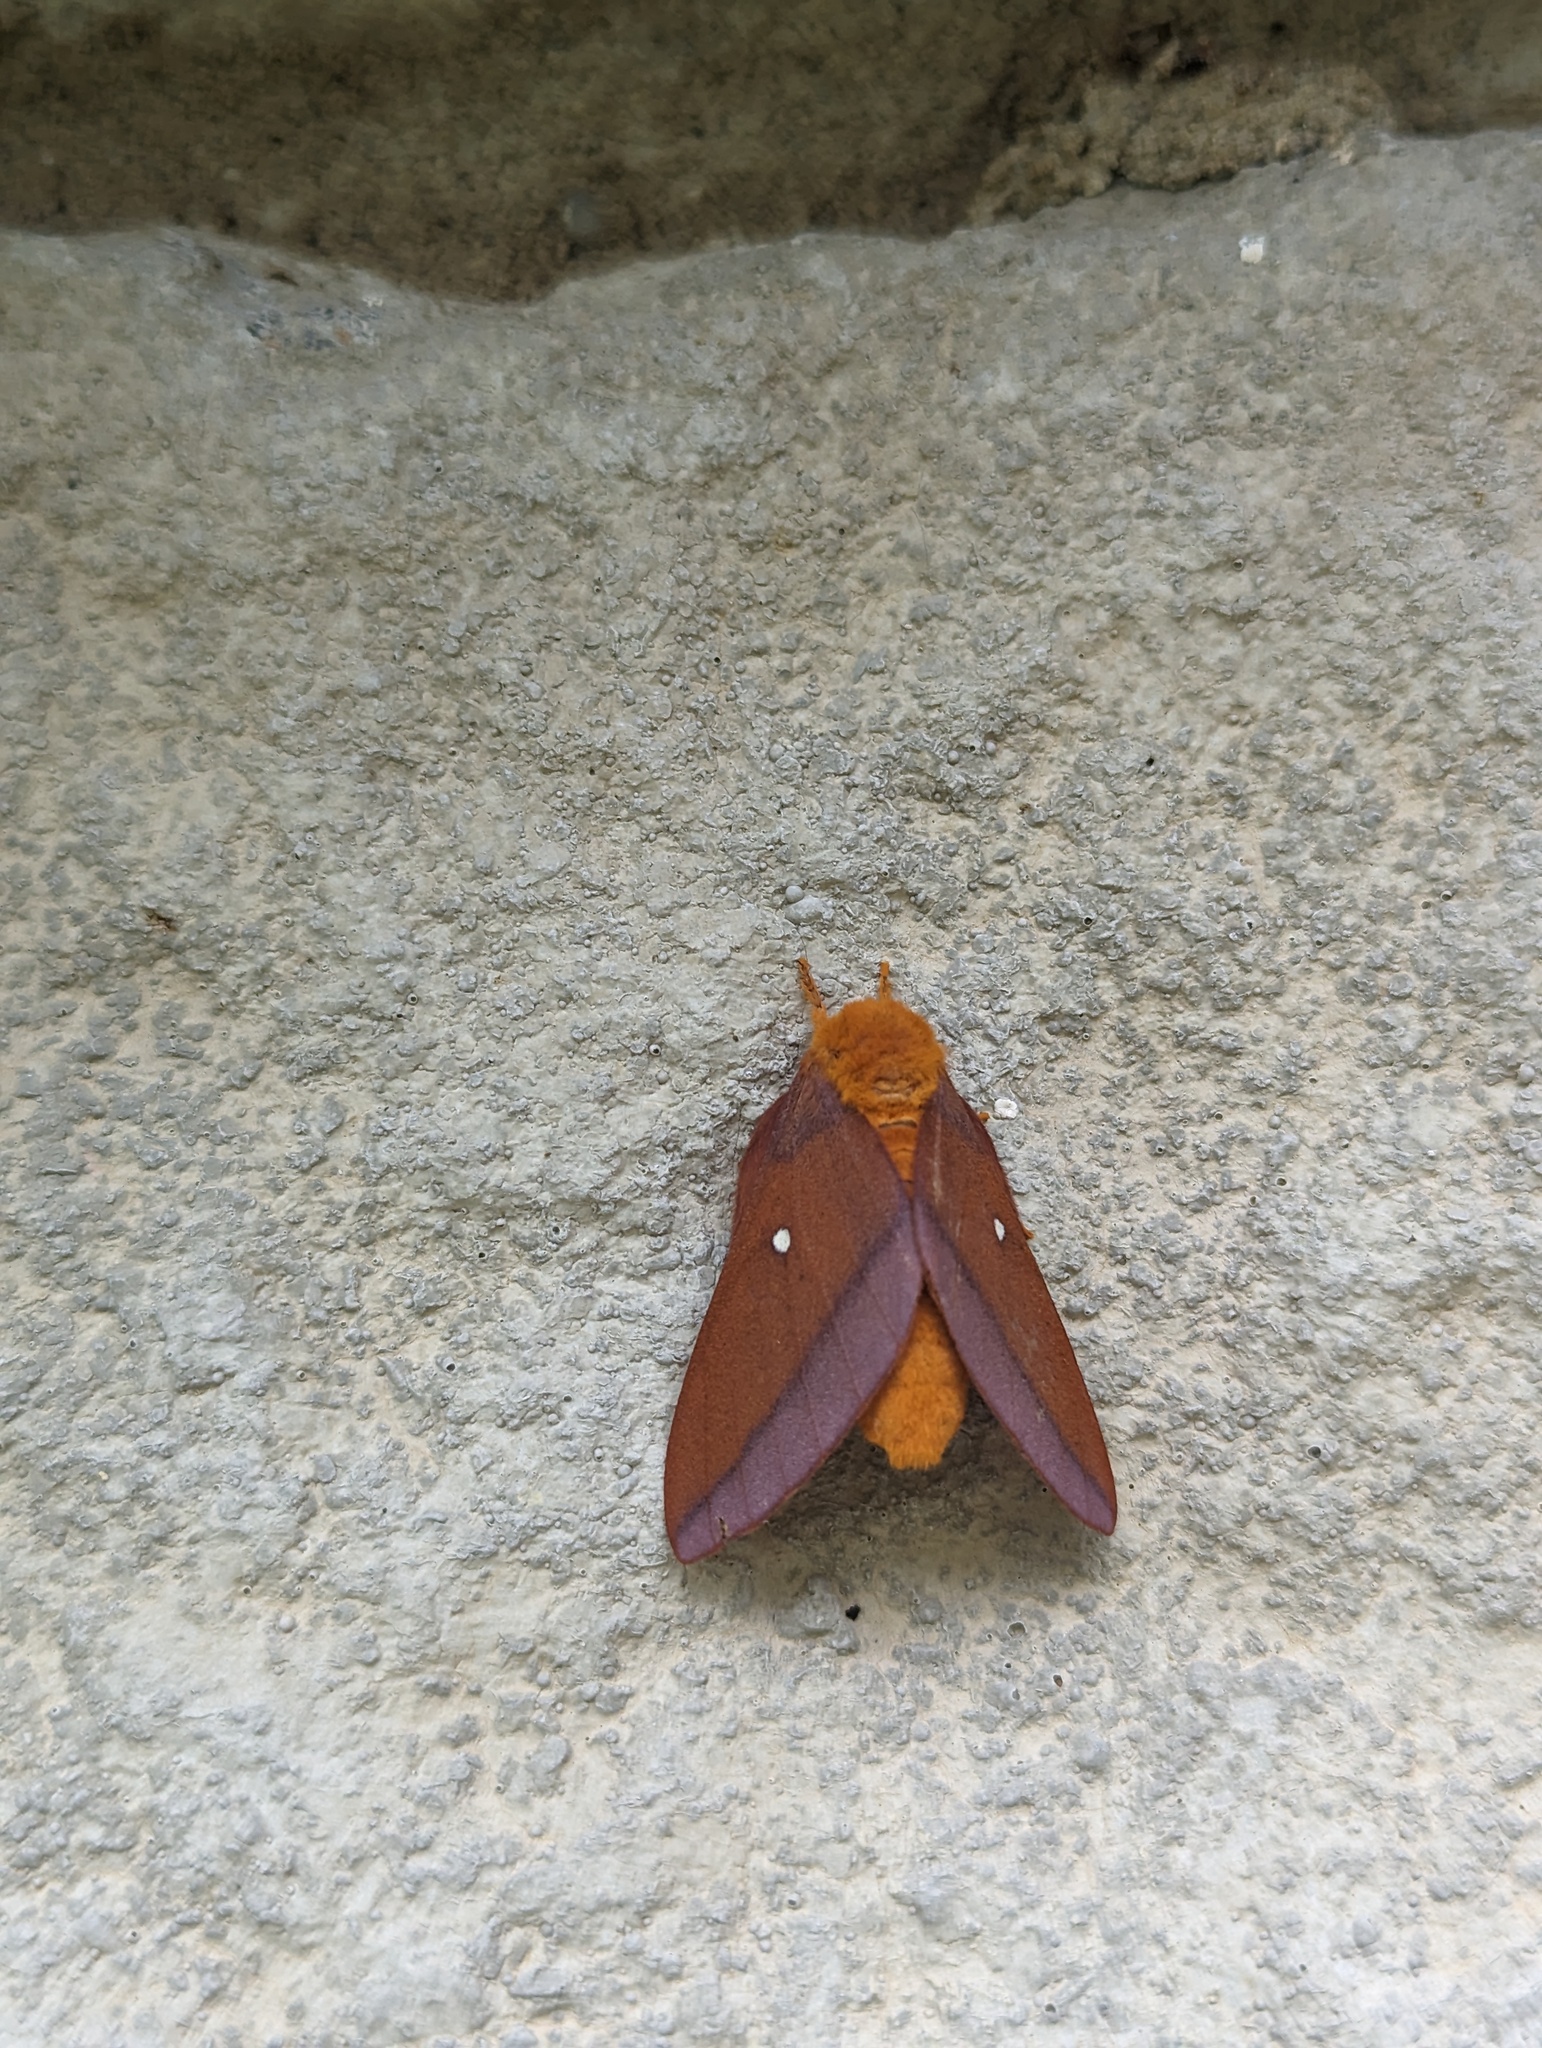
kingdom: Animalia
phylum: Arthropoda
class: Insecta
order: Lepidoptera
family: Saturniidae
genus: Anisota
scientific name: Anisota virginiensis
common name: Pink striped oakworm moth
